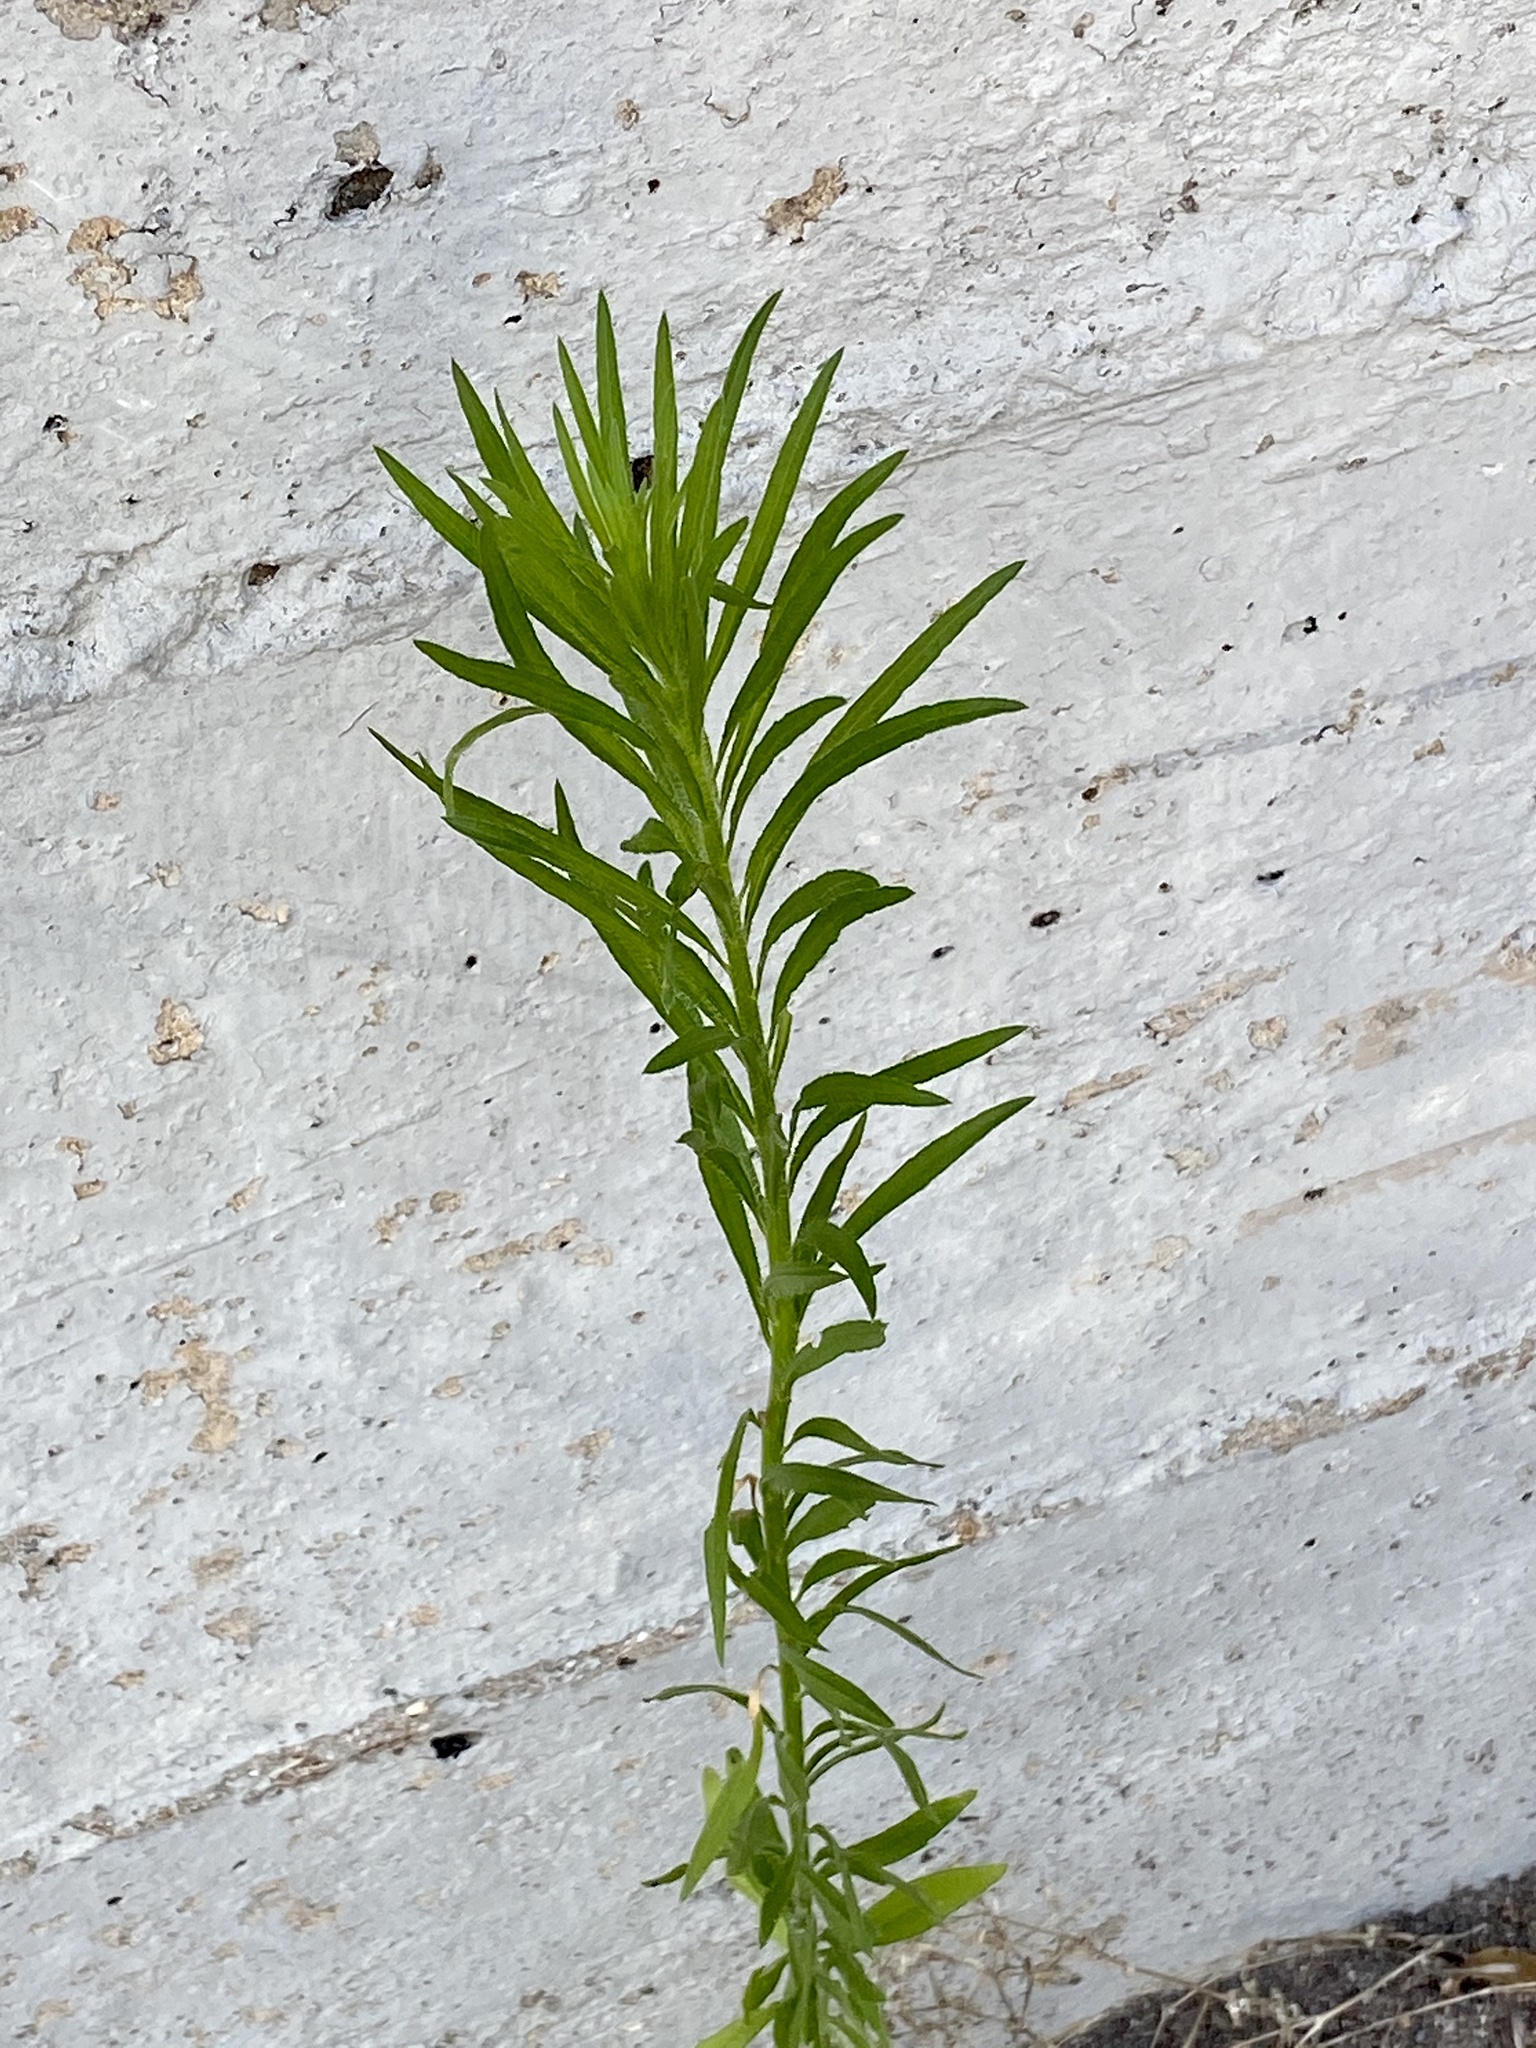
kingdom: Plantae
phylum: Tracheophyta
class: Magnoliopsida
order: Asterales
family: Asteraceae
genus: Erigeron
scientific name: Erigeron canadensis
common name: Canadian fleabane
